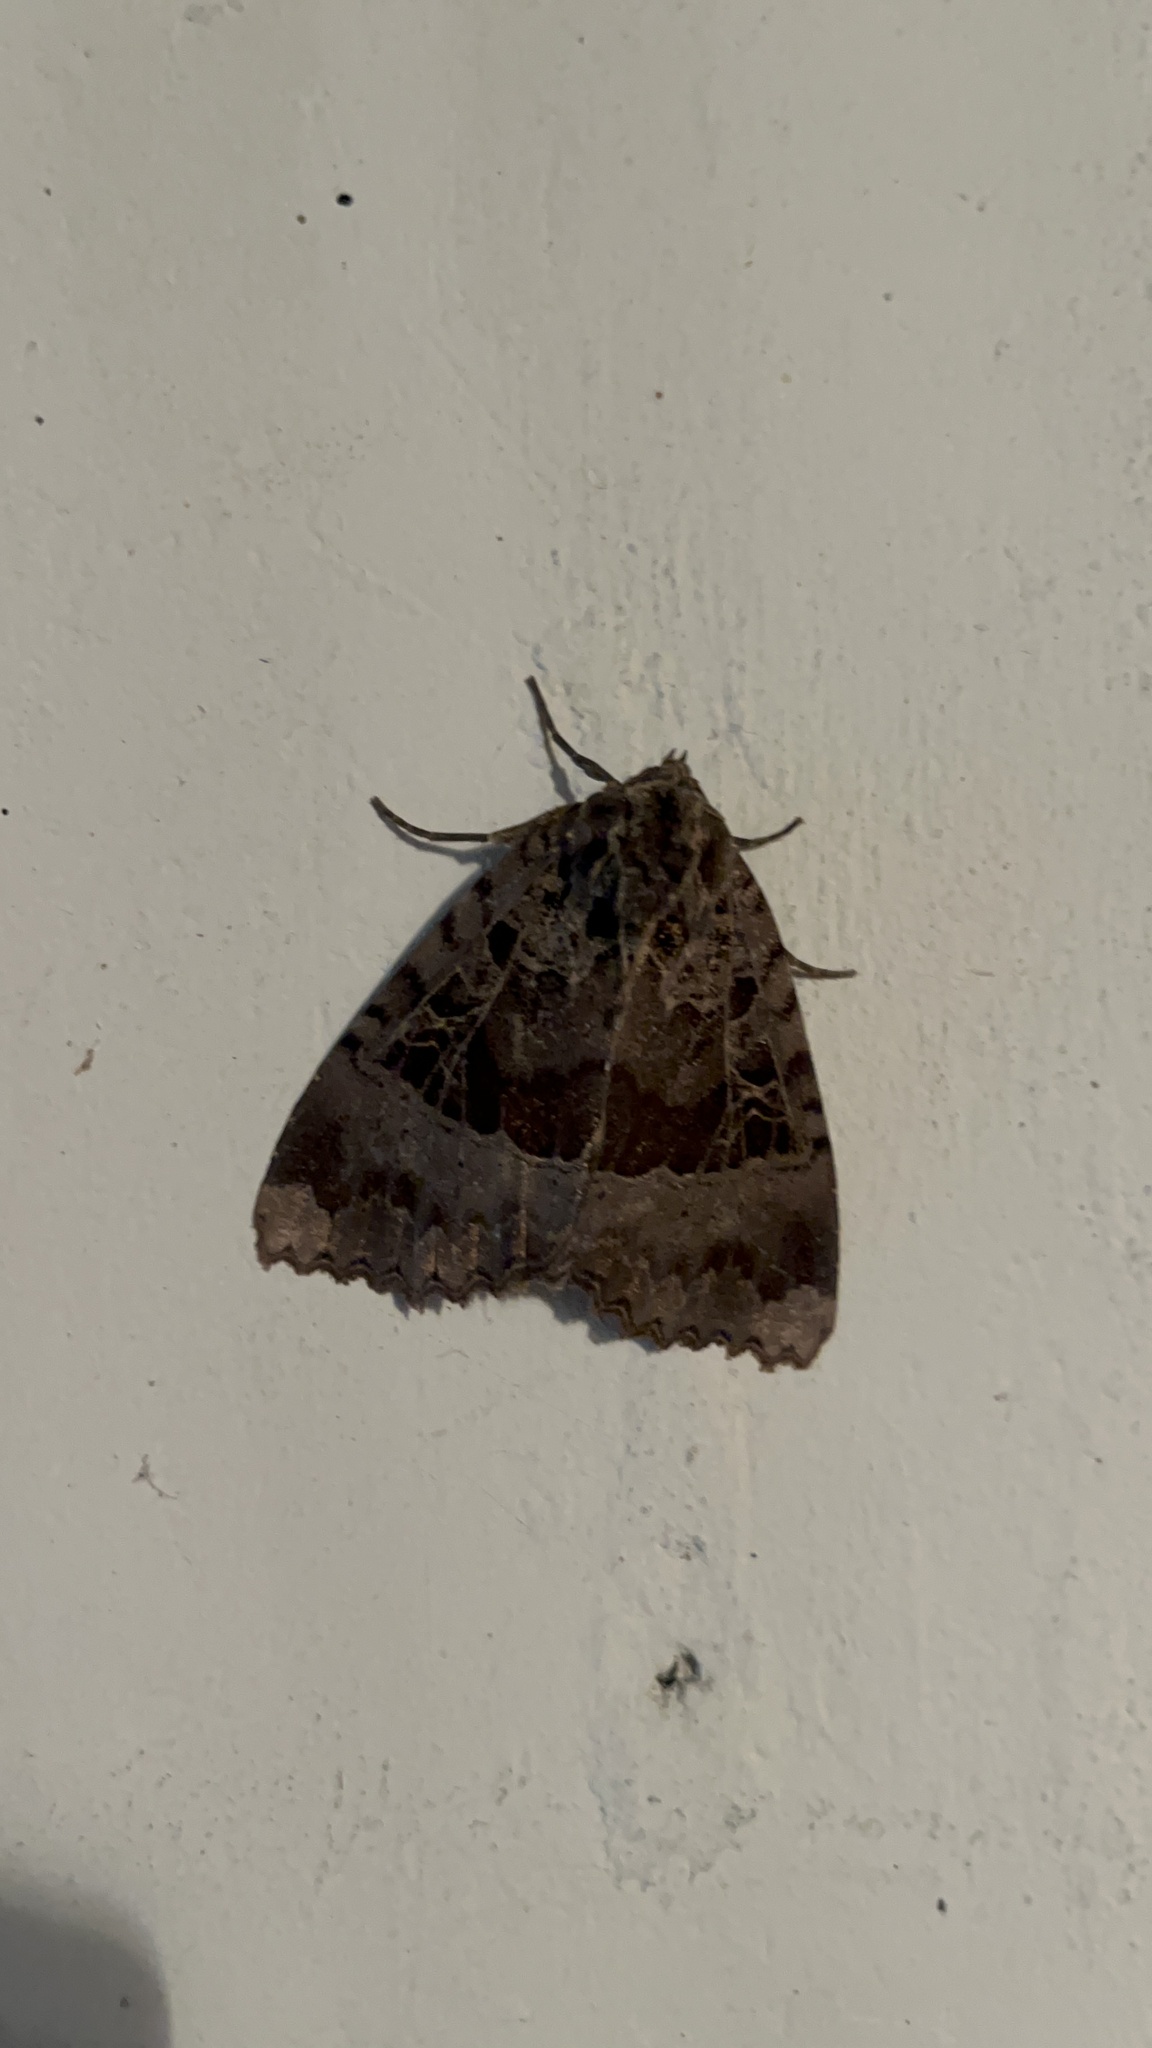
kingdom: Animalia
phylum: Arthropoda
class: Insecta
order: Lepidoptera
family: Noctuidae
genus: Mormo
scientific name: Mormo maura
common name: Old lady
